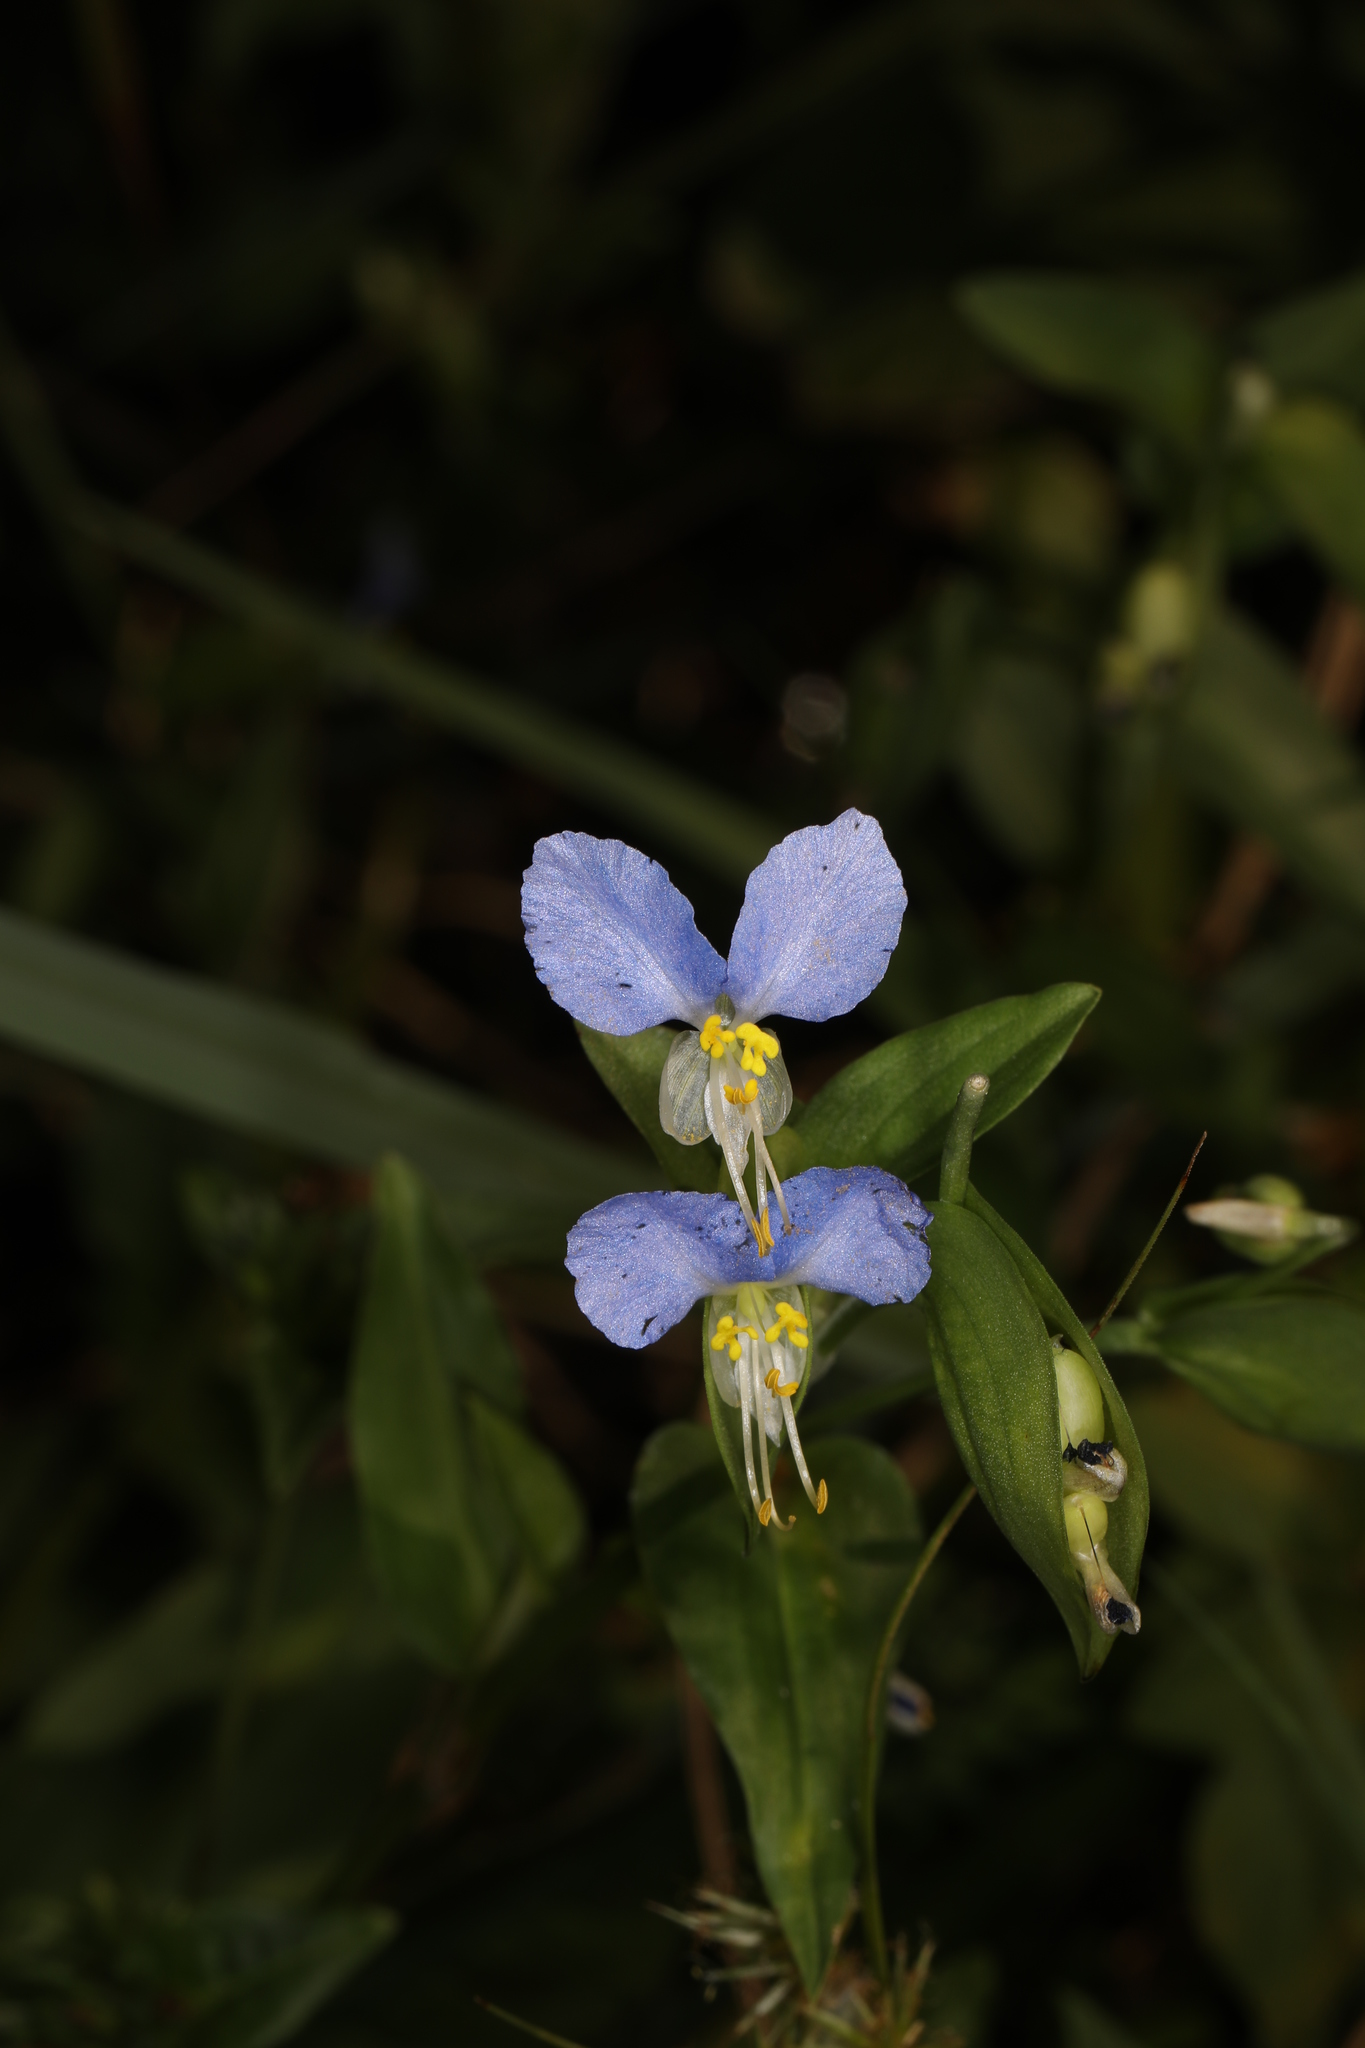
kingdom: Plantae
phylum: Tracheophyta
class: Liliopsida
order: Commelinales
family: Commelinaceae
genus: Commelina
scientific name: Commelina communis
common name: Asiatic dayflower
